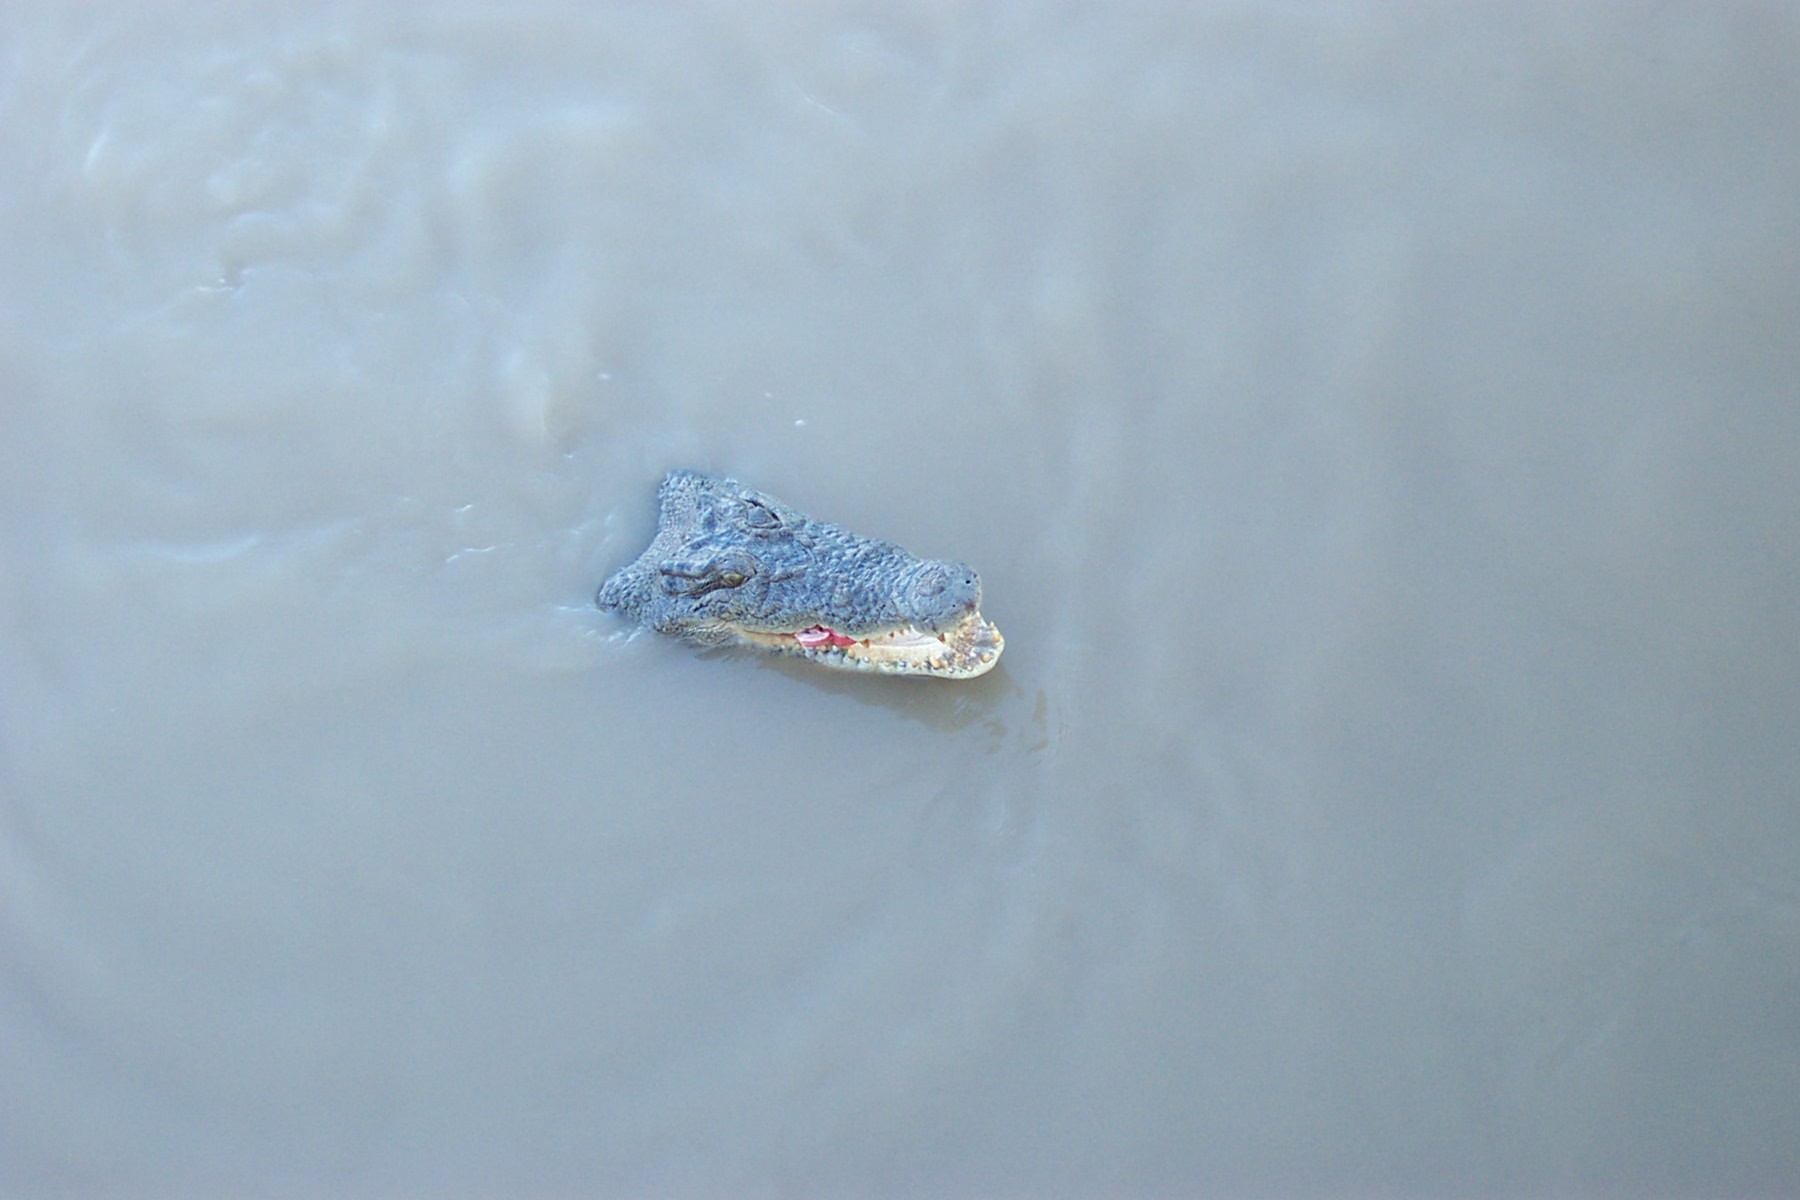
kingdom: Animalia
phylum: Chordata
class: Crocodylia
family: Crocodylidae
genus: Crocodylus
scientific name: Crocodylus porosus
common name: Saltwater crocodile
